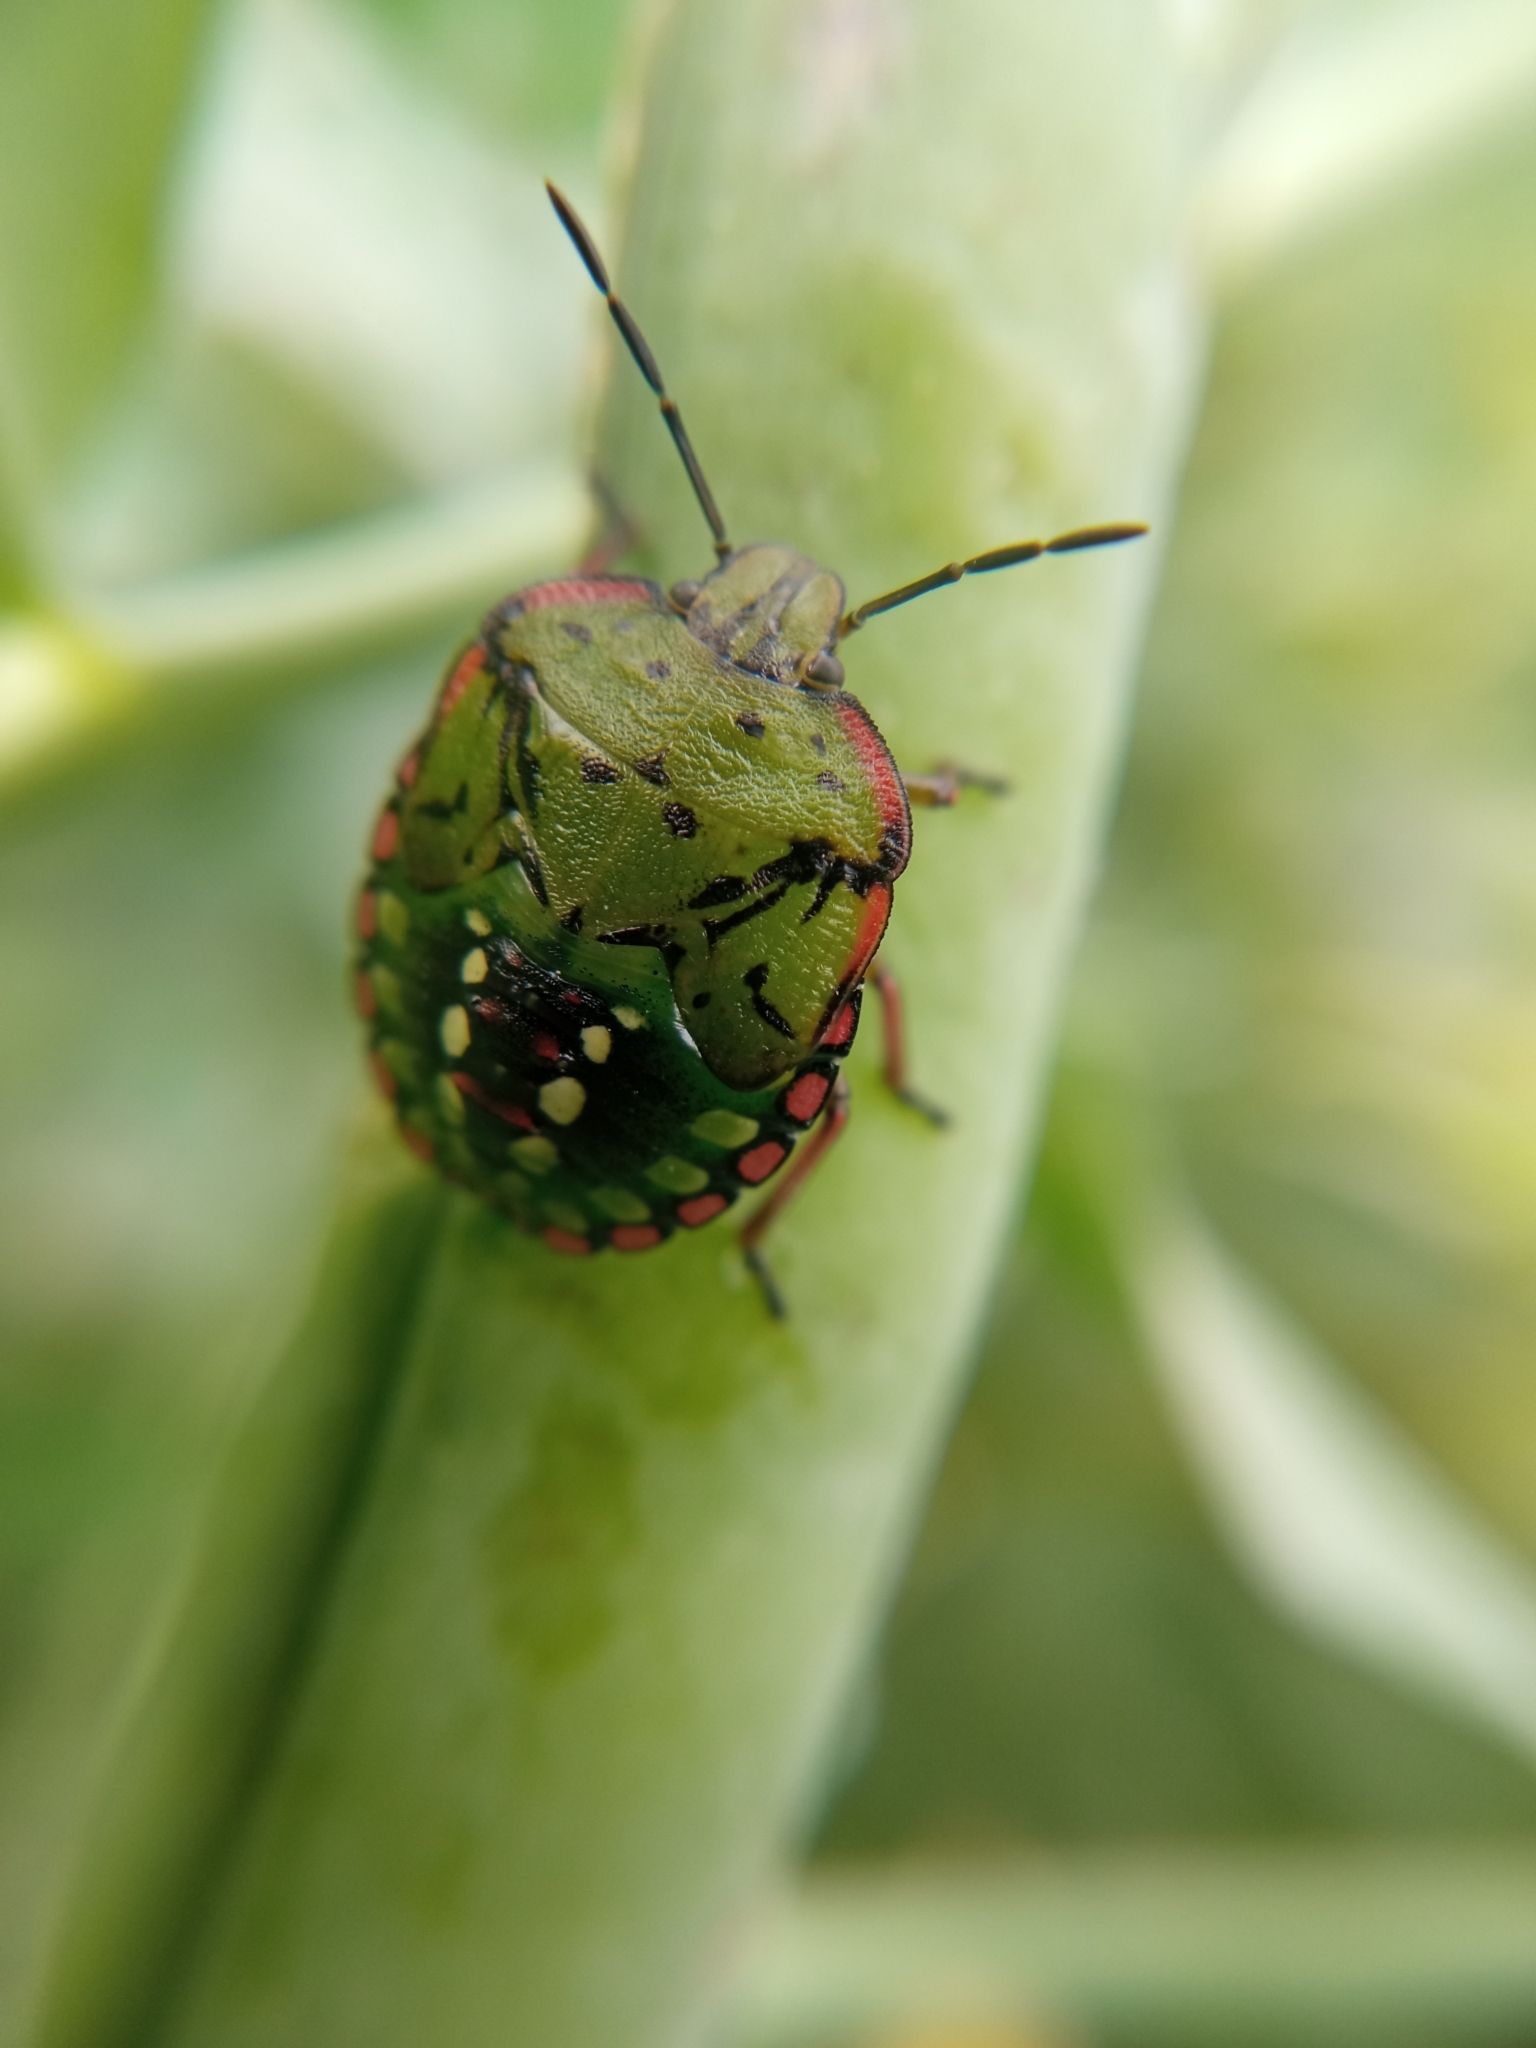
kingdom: Animalia
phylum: Arthropoda
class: Insecta
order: Hemiptera
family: Pentatomidae
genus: Nezara
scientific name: Nezara viridula
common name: Southern green stink bug
